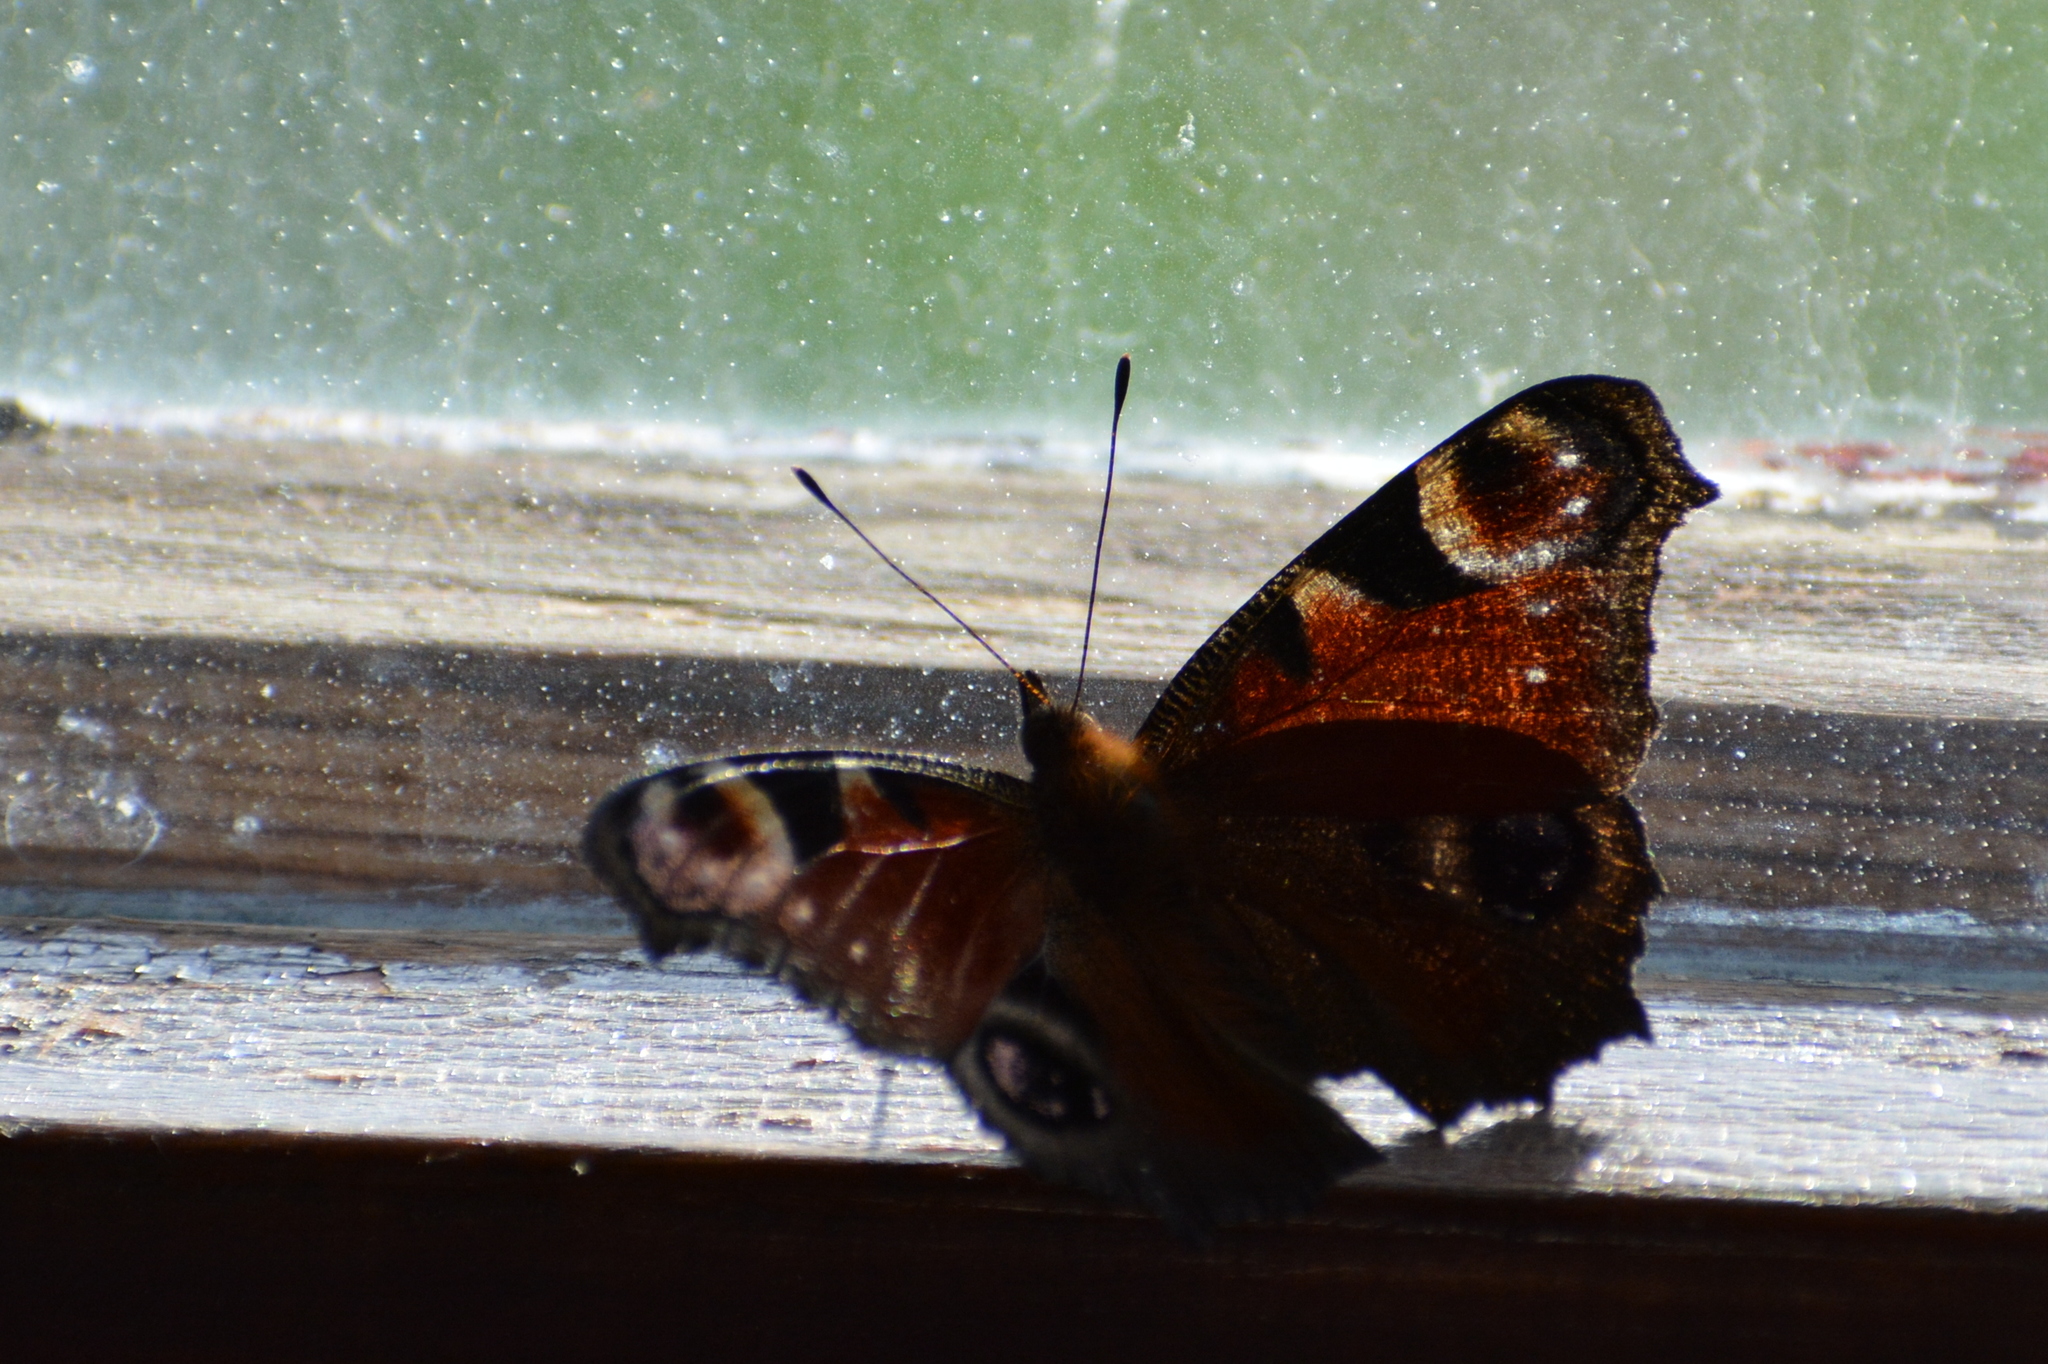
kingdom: Animalia
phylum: Arthropoda
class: Insecta
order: Lepidoptera
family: Nymphalidae
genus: Aglais
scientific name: Aglais io
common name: Peacock
